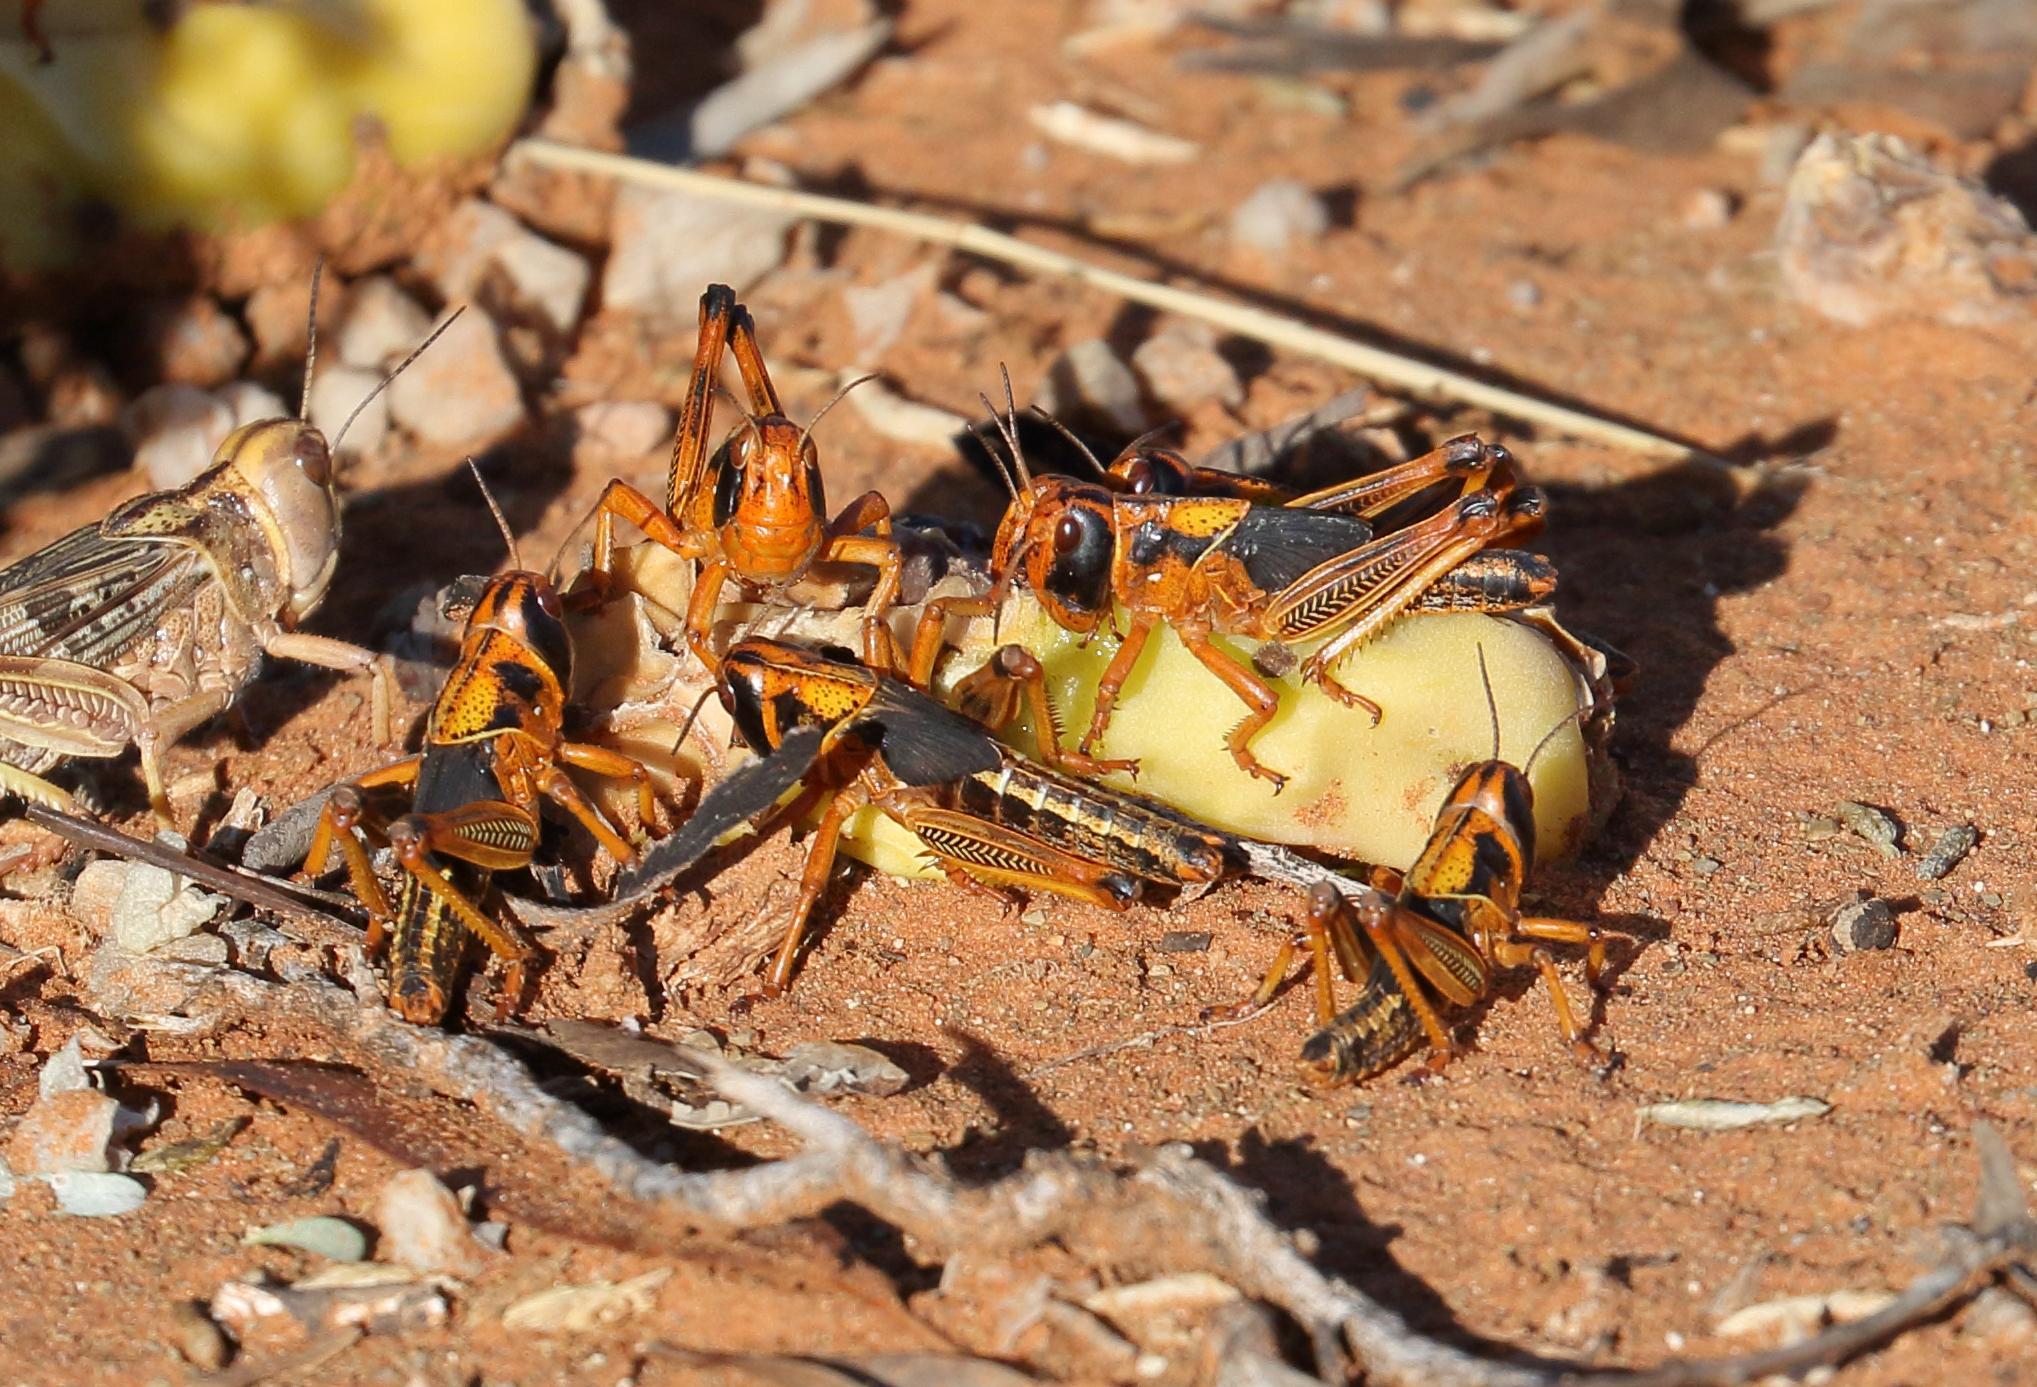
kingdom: Animalia
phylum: Arthropoda
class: Insecta
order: Orthoptera
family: Acrididae
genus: Locustana
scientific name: Locustana pardalina
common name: Brown locust
